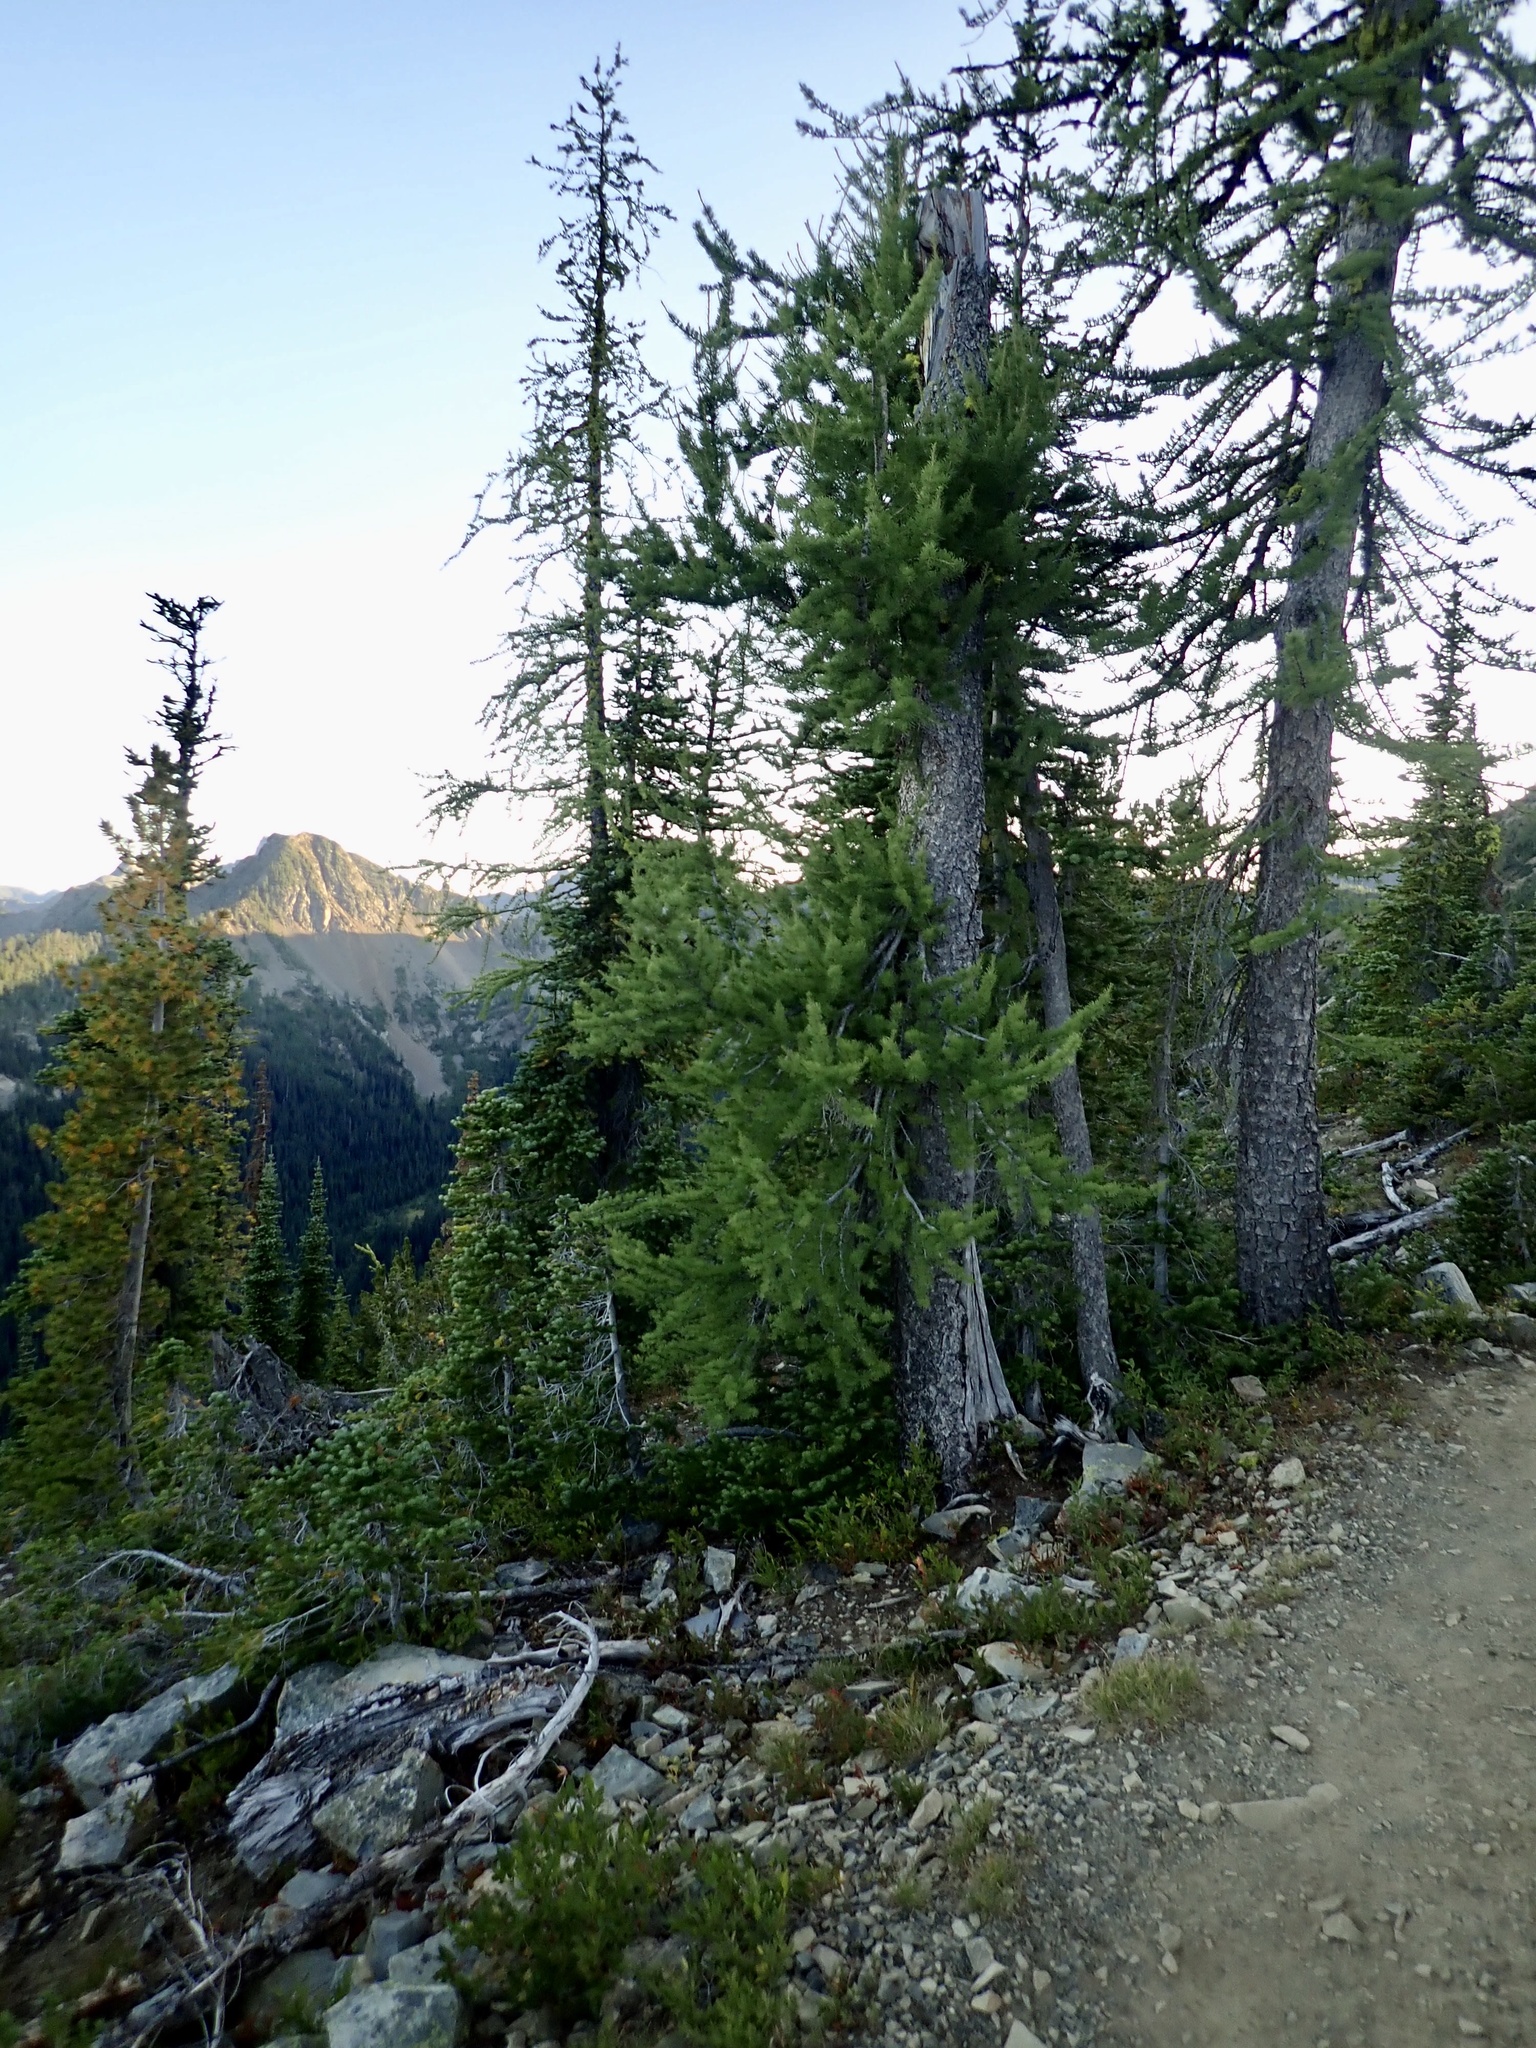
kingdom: Plantae
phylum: Tracheophyta
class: Pinopsida
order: Pinales
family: Pinaceae
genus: Larix
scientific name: Larix lyallii
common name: Alpine larch
